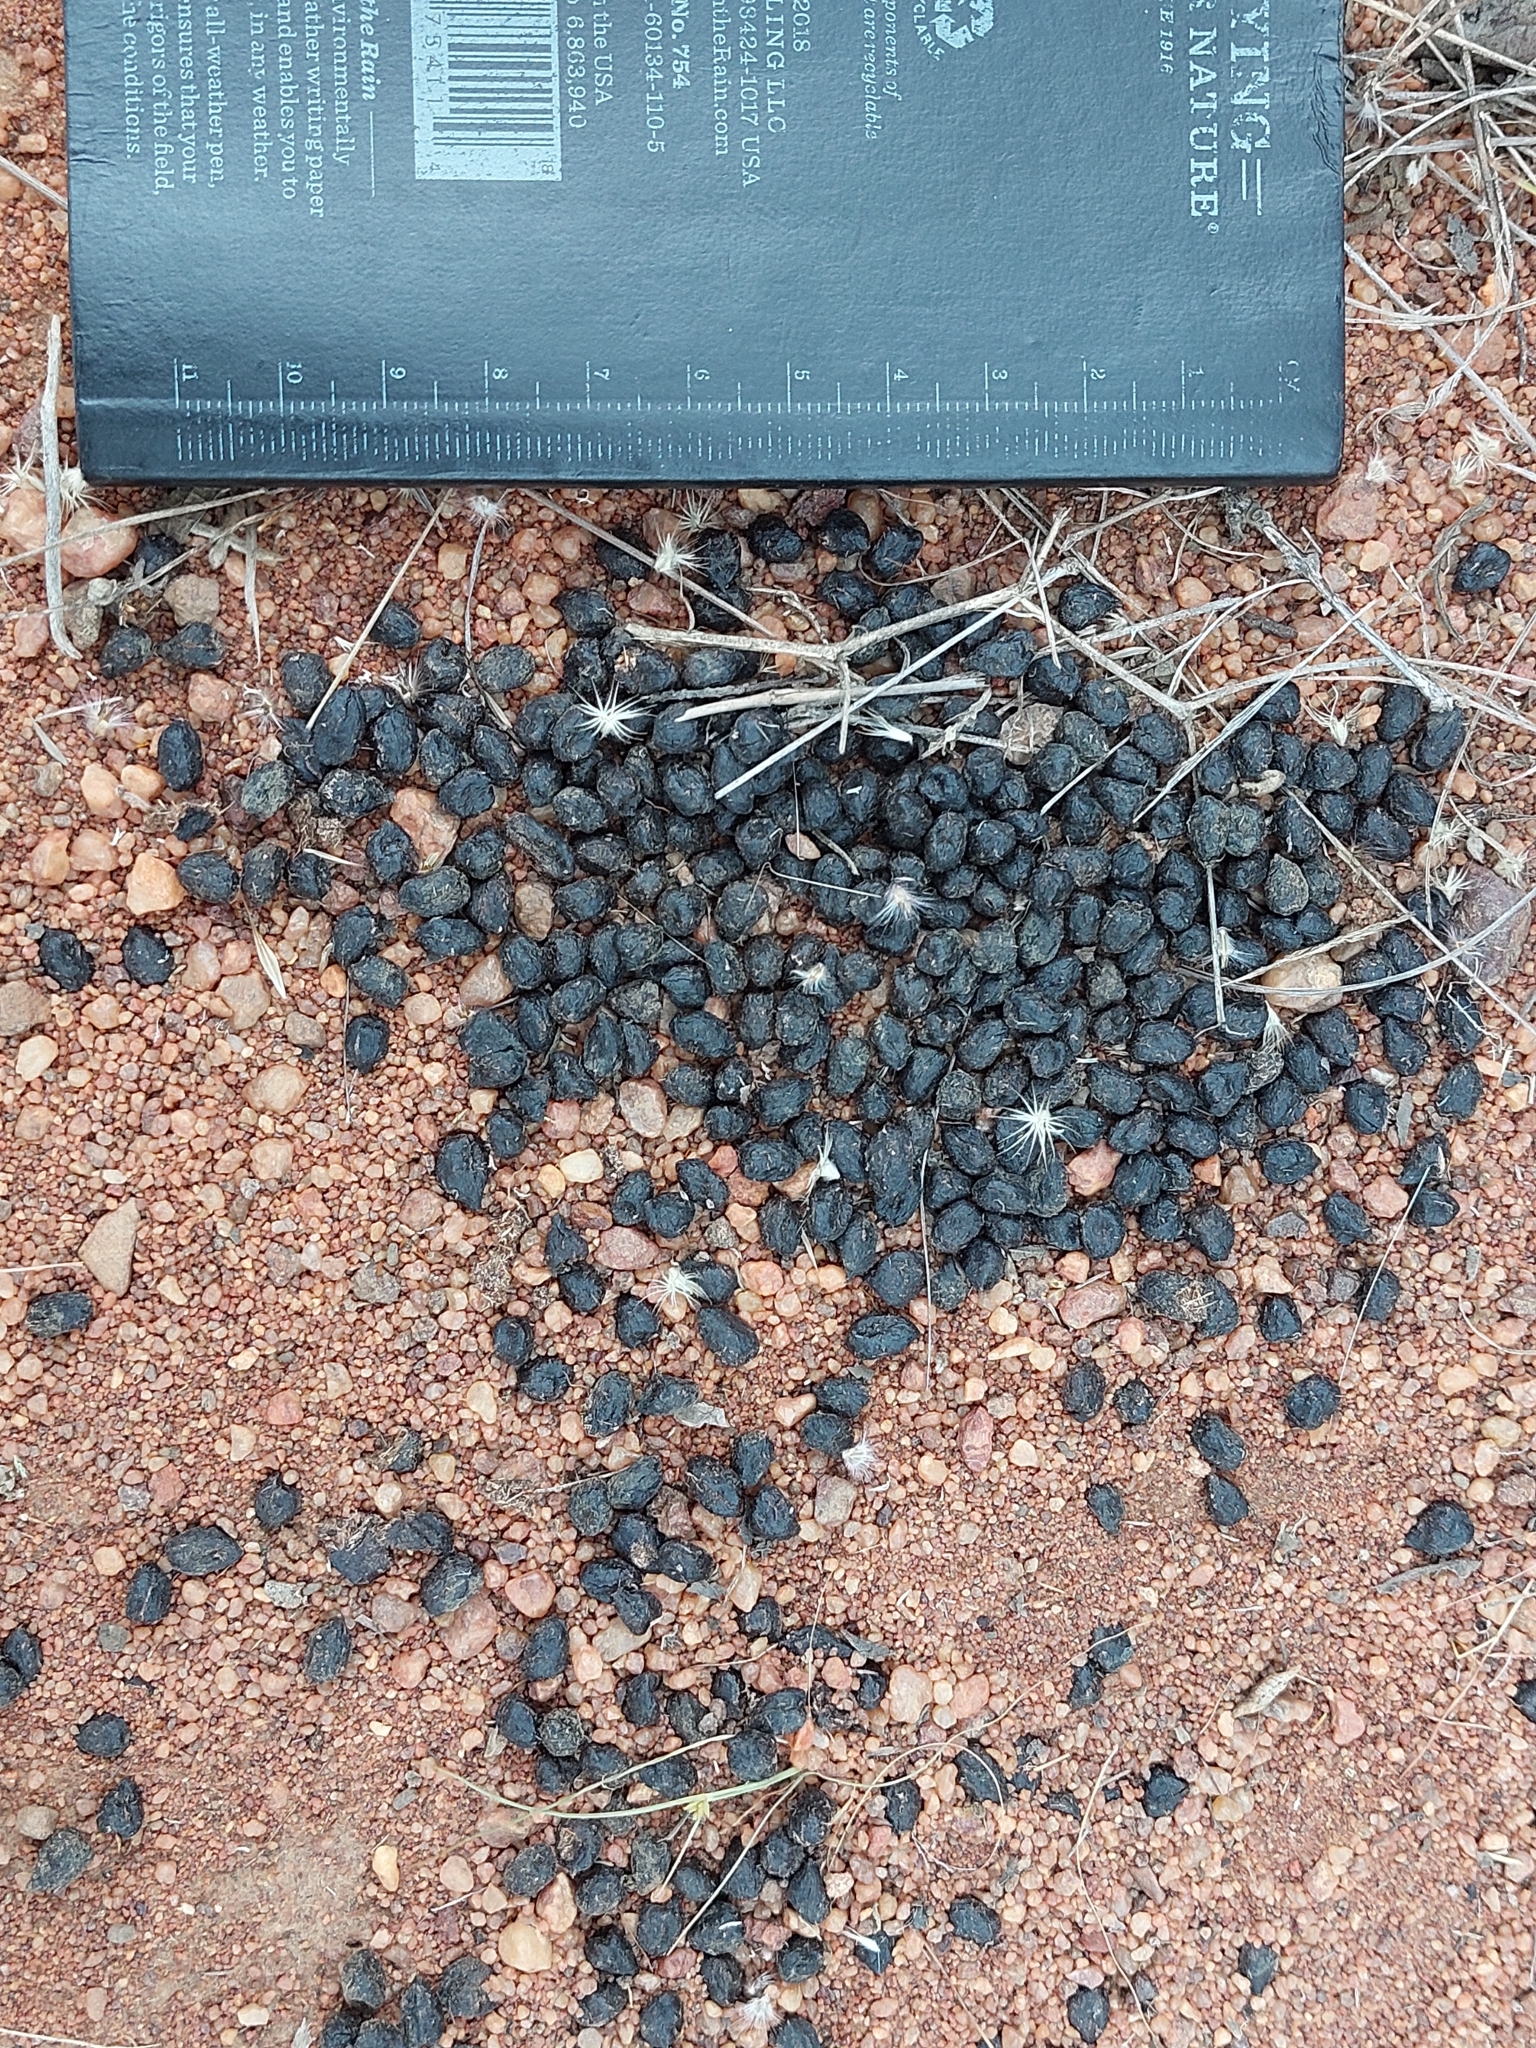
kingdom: Animalia
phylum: Chordata
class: Mammalia
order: Artiodactyla
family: Bovidae
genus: Sylvicapra
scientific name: Sylvicapra grimmia
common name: Bush duiker
